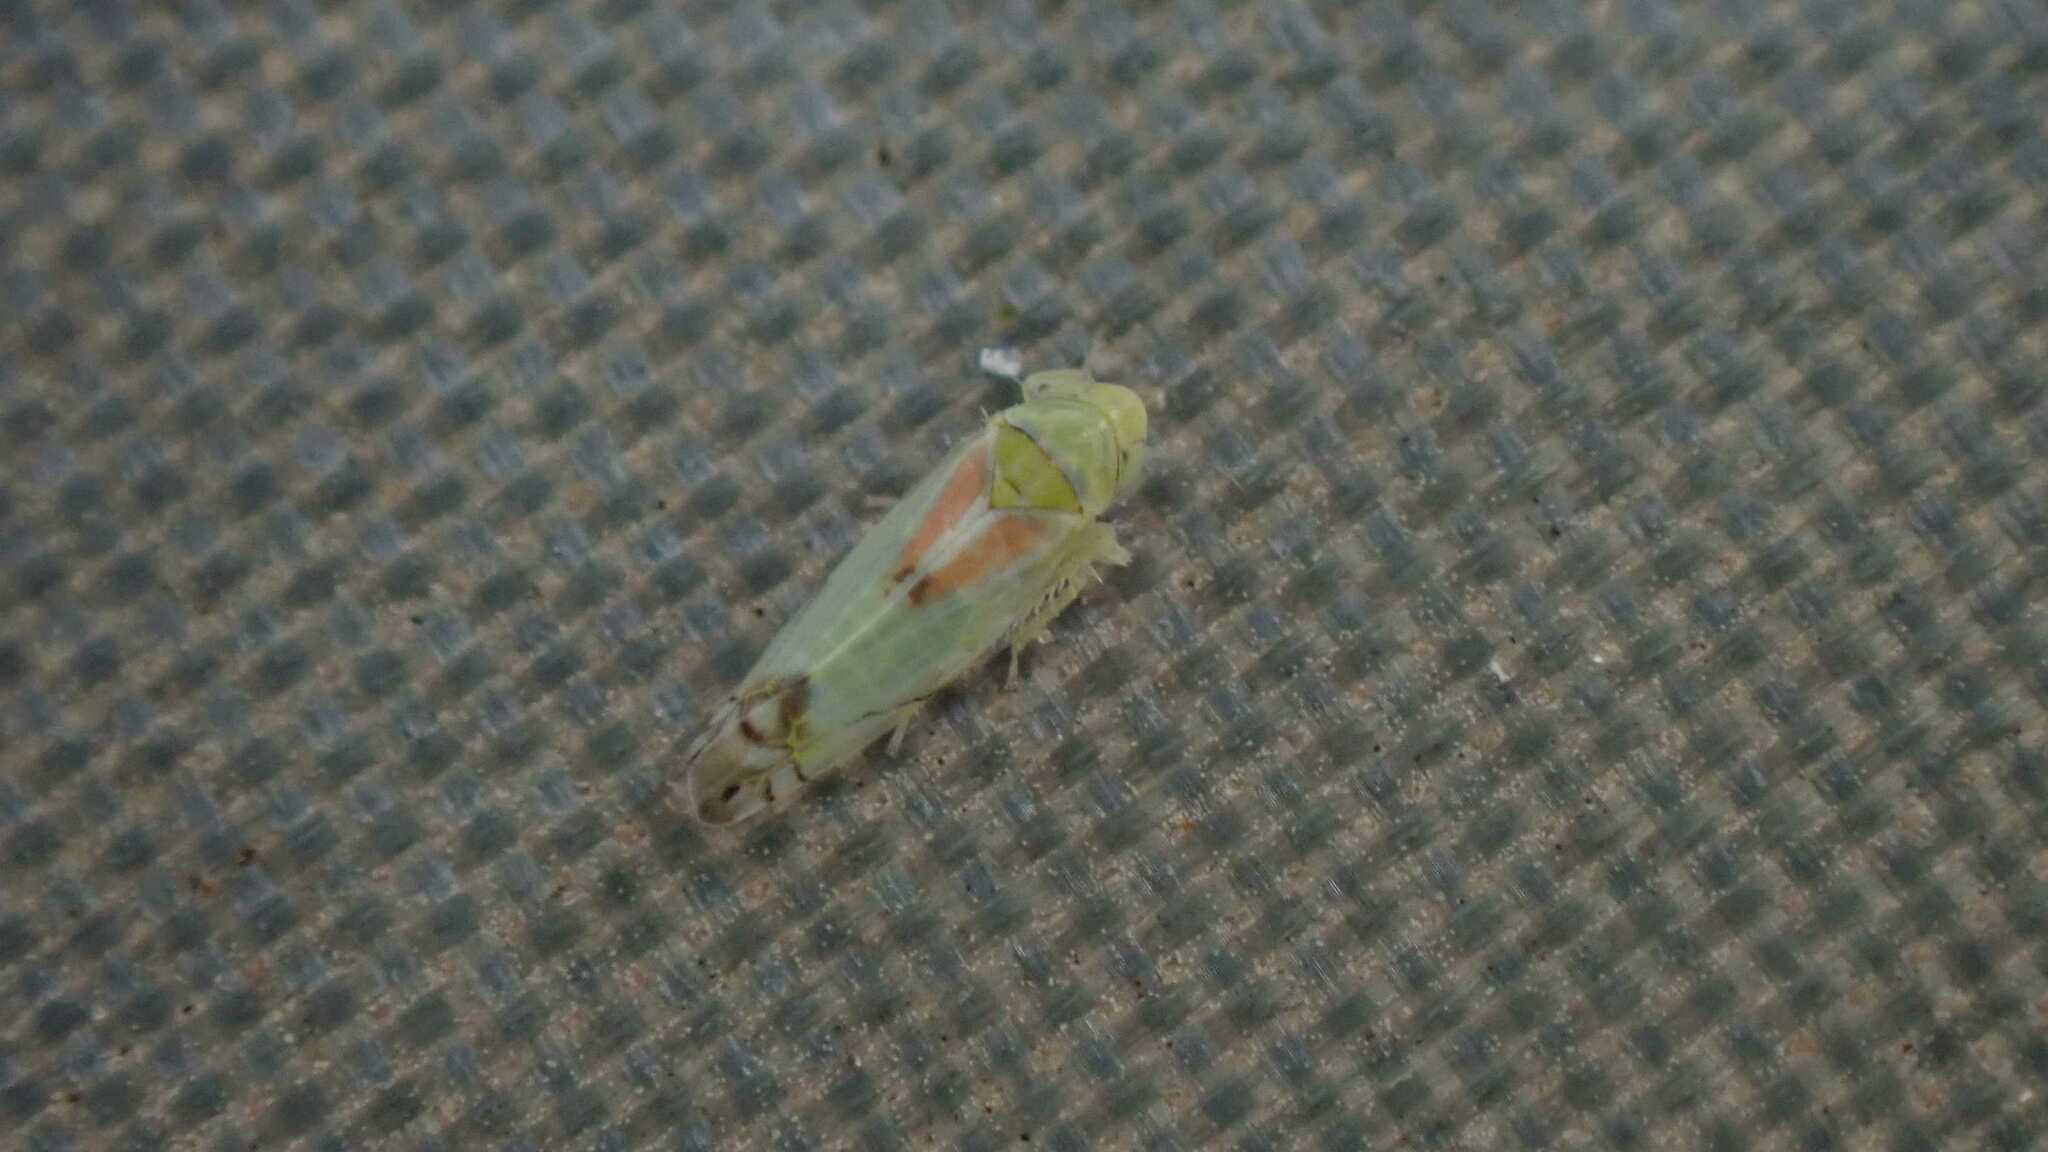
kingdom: Animalia
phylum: Arthropoda
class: Insecta
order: Hemiptera
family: Cicadellidae
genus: Zyginella
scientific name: Zyginella pulchra
